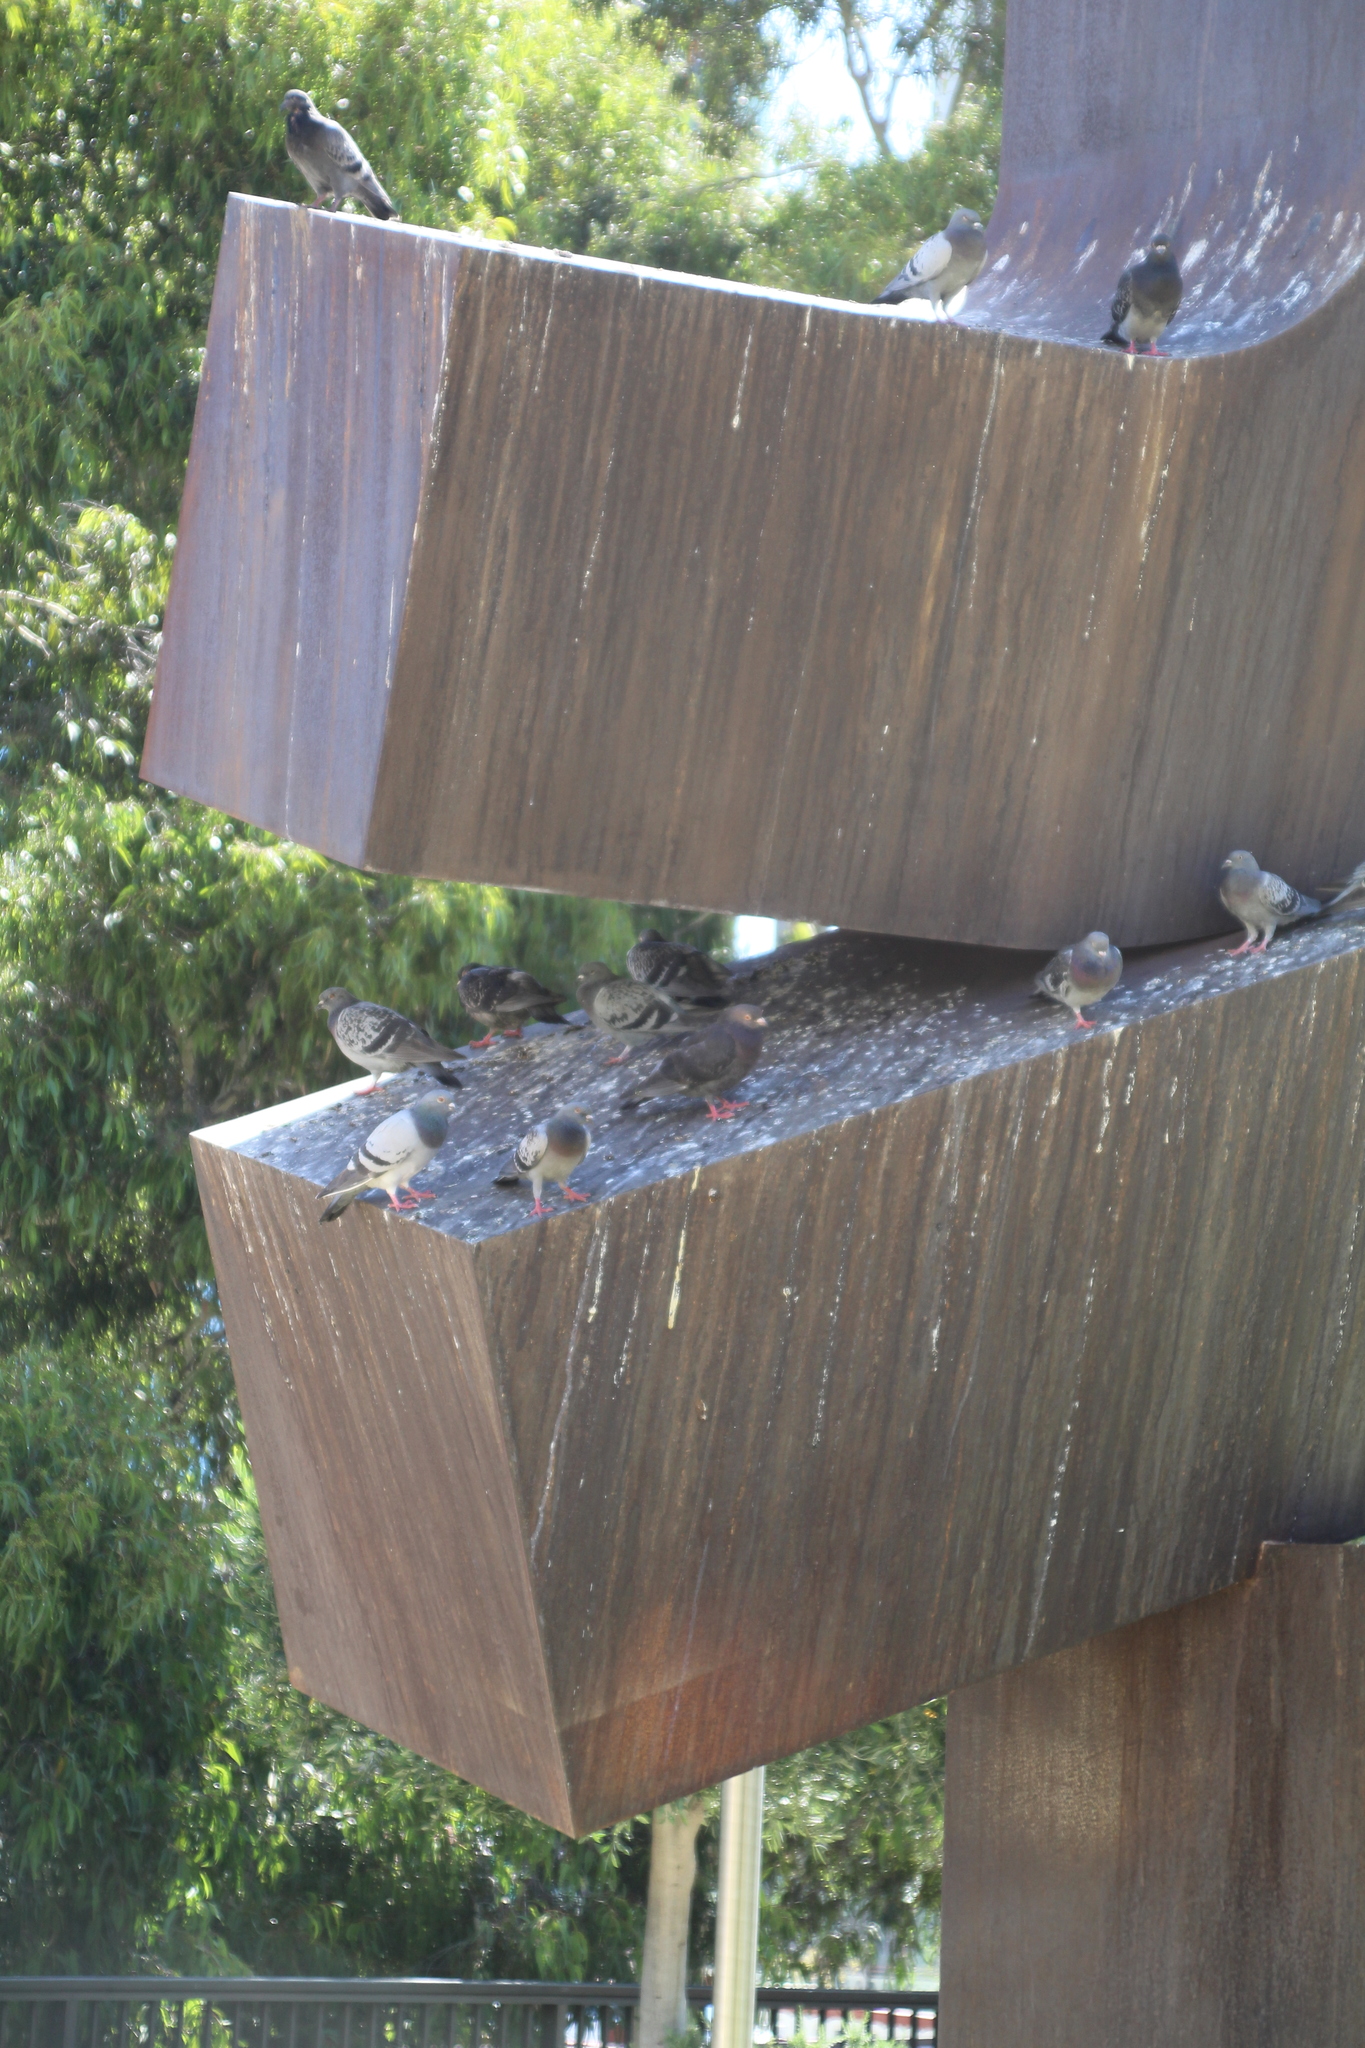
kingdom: Animalia
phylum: Chordata
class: Aves
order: Columbiformes
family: Columbidae
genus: Columba
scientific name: Columba livia
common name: Rock pigeon
